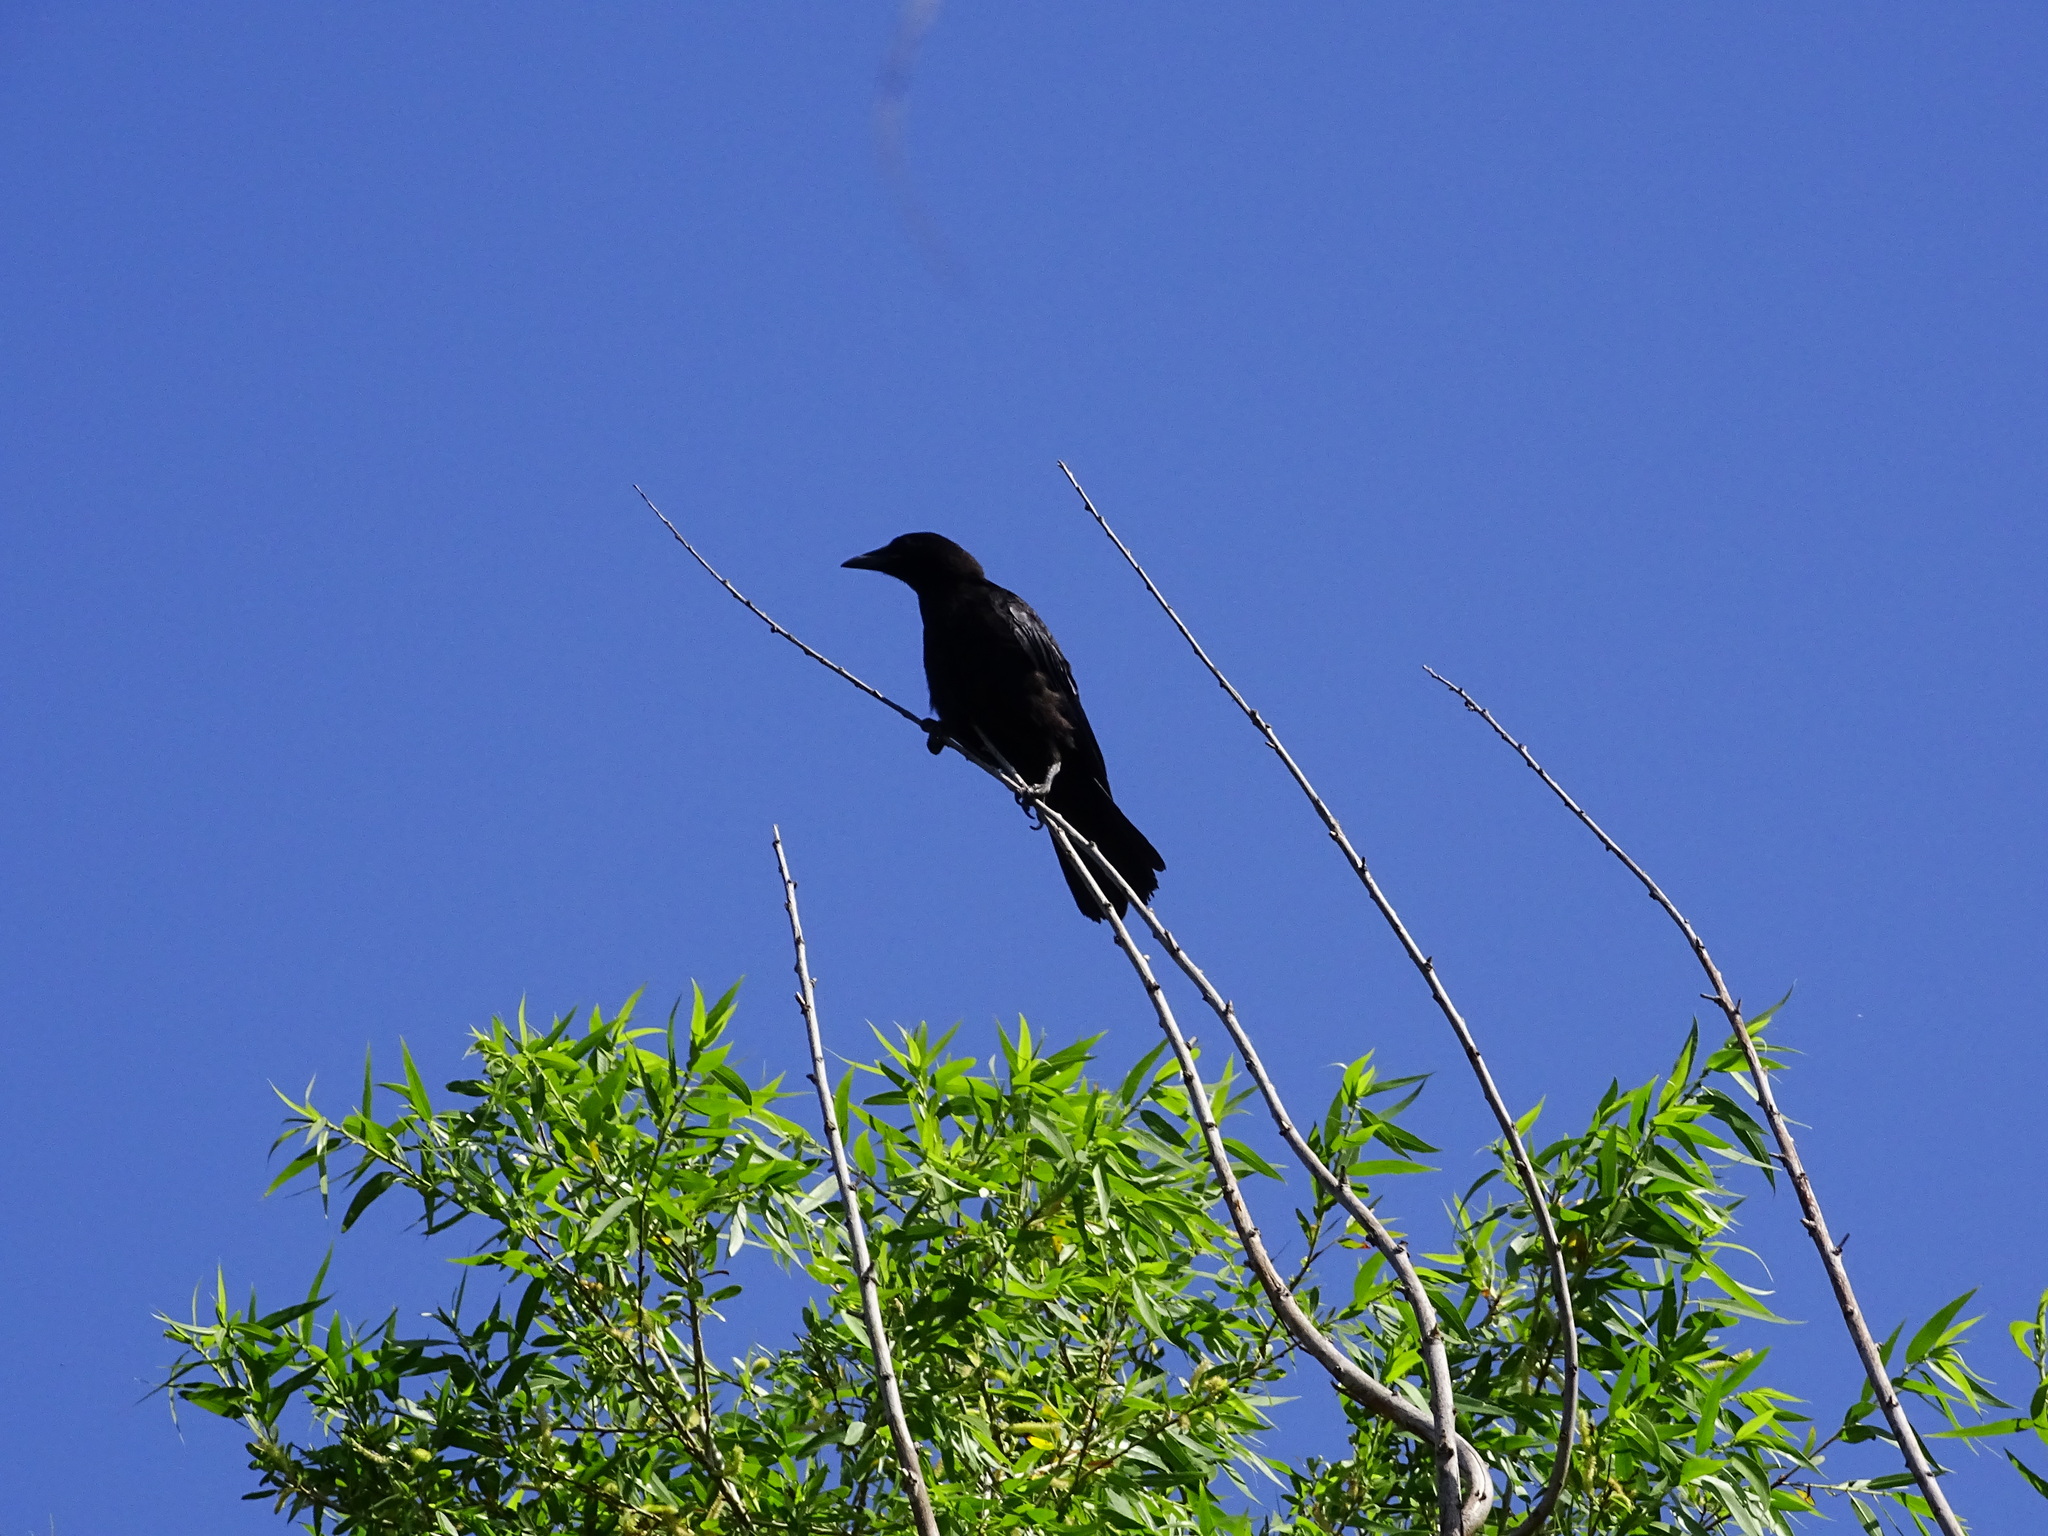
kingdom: Animalia
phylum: Chordata
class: Aves
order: Passeriformes
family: Corvidae
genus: Corvus
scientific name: Corvus brachyrhynchos
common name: American crow
